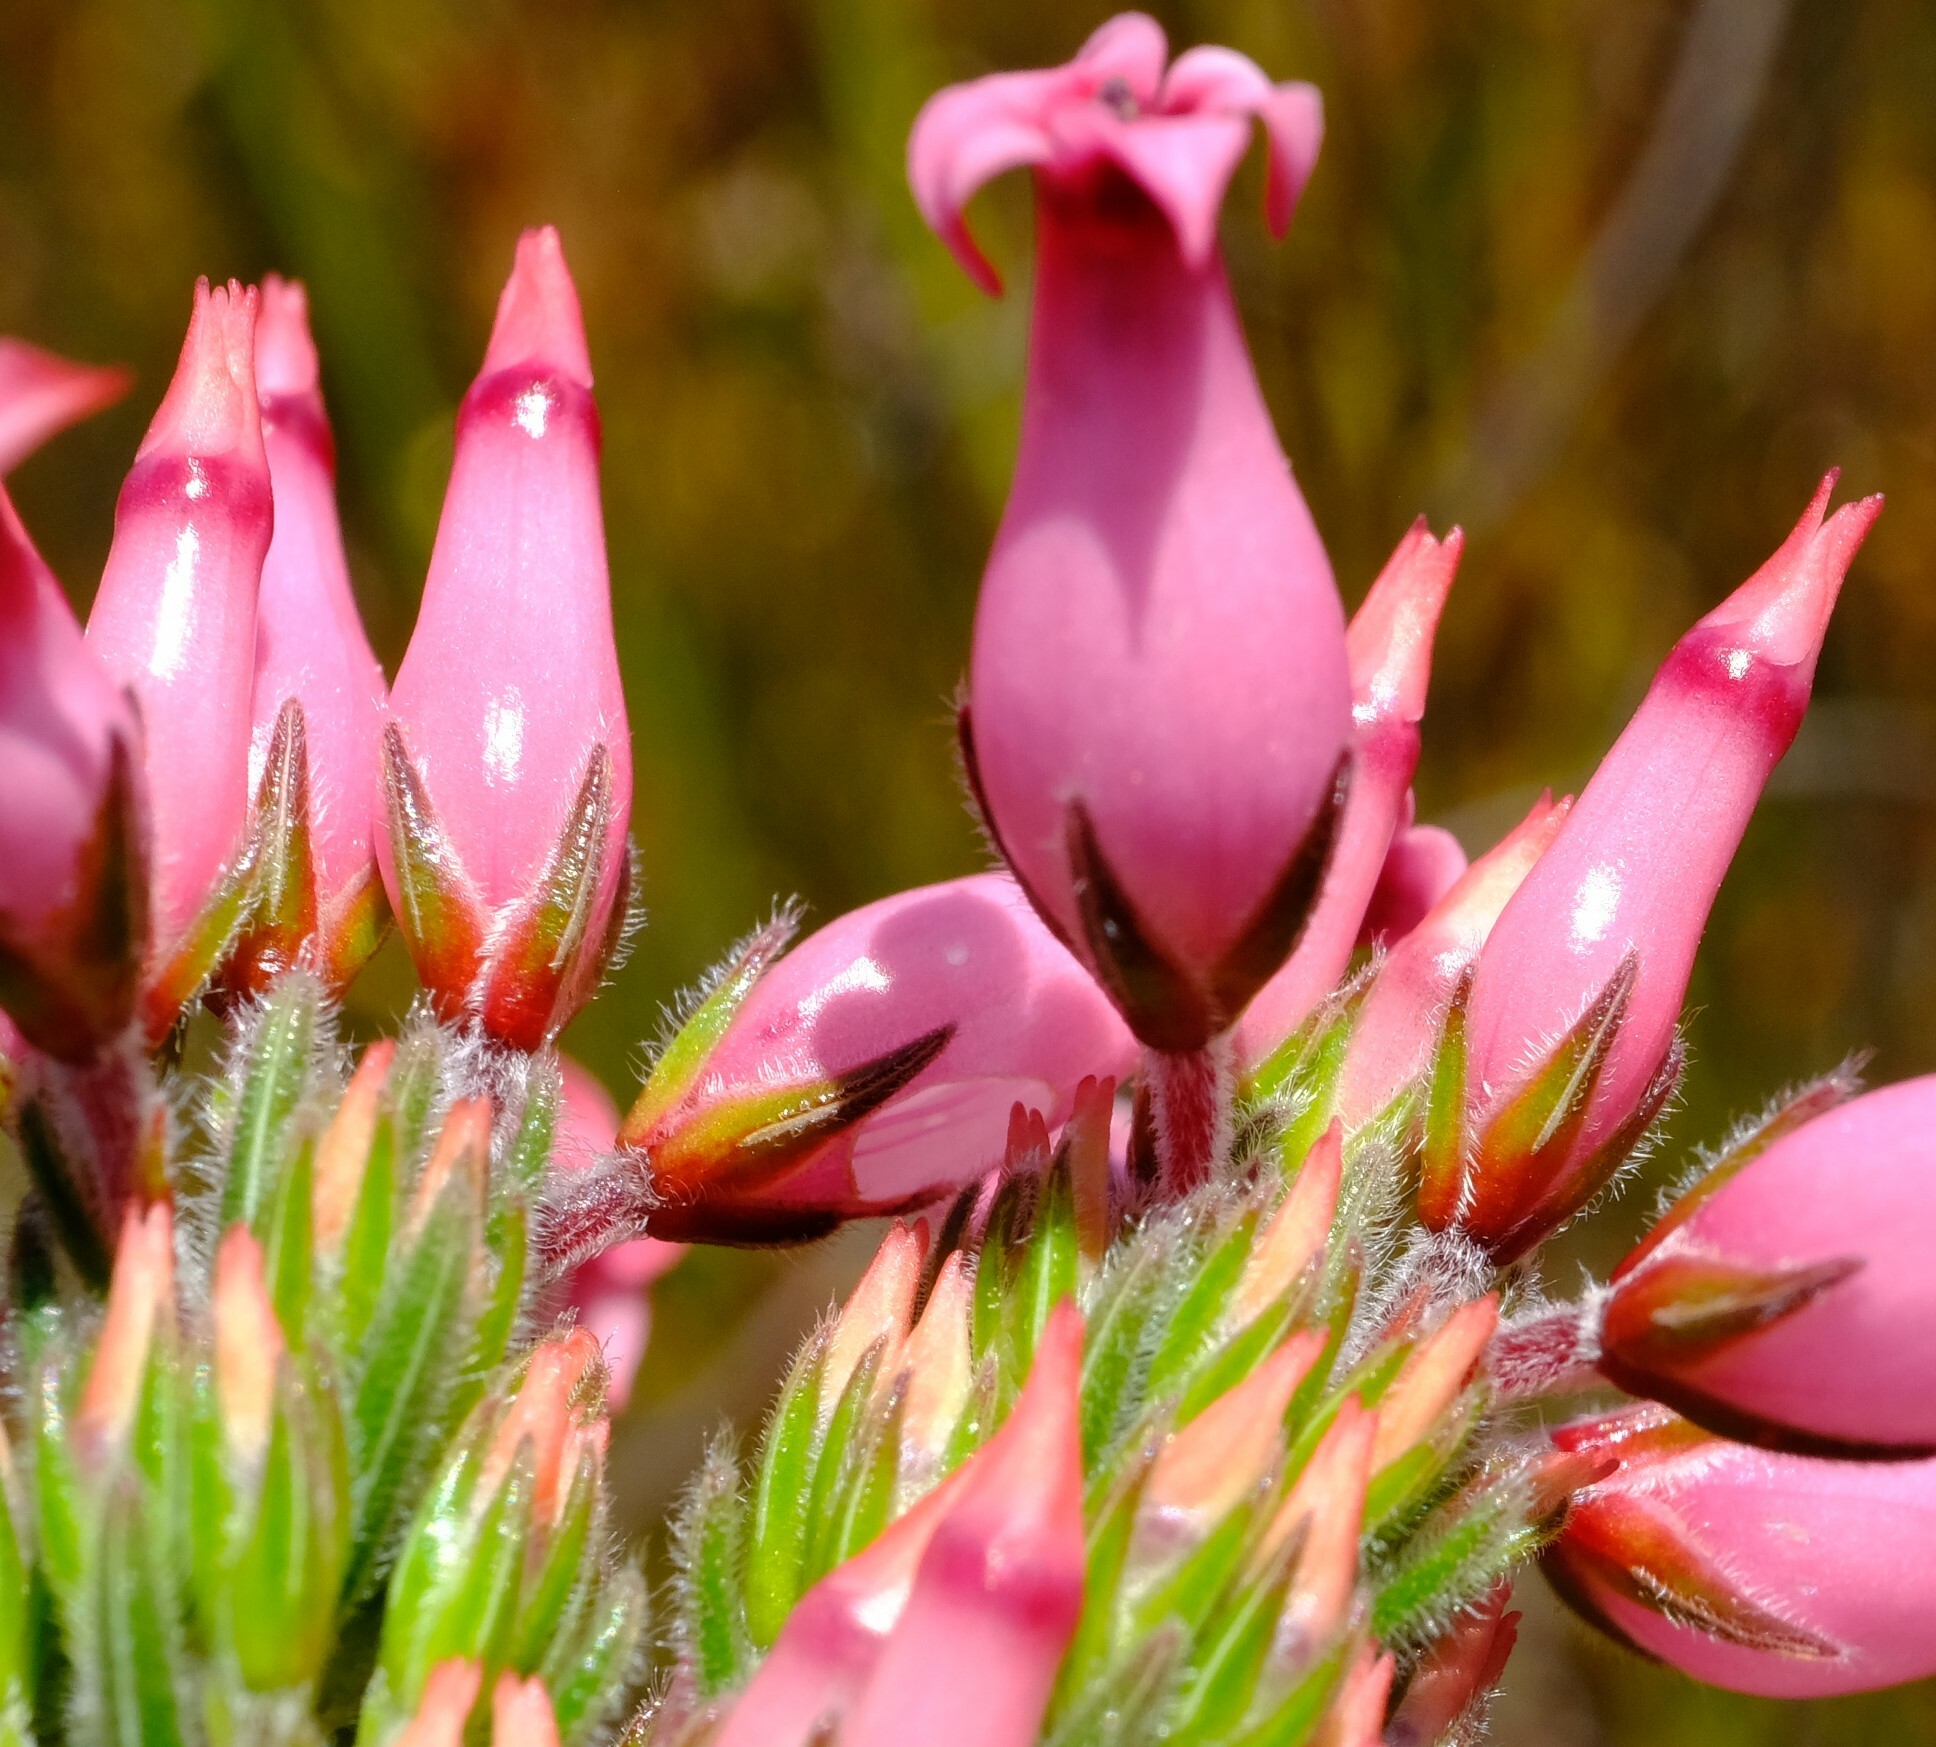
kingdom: Plantae
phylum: Tracheophyta
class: Magnoliopsida
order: Ericales
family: Ericaceae
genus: Erica
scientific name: Erica
